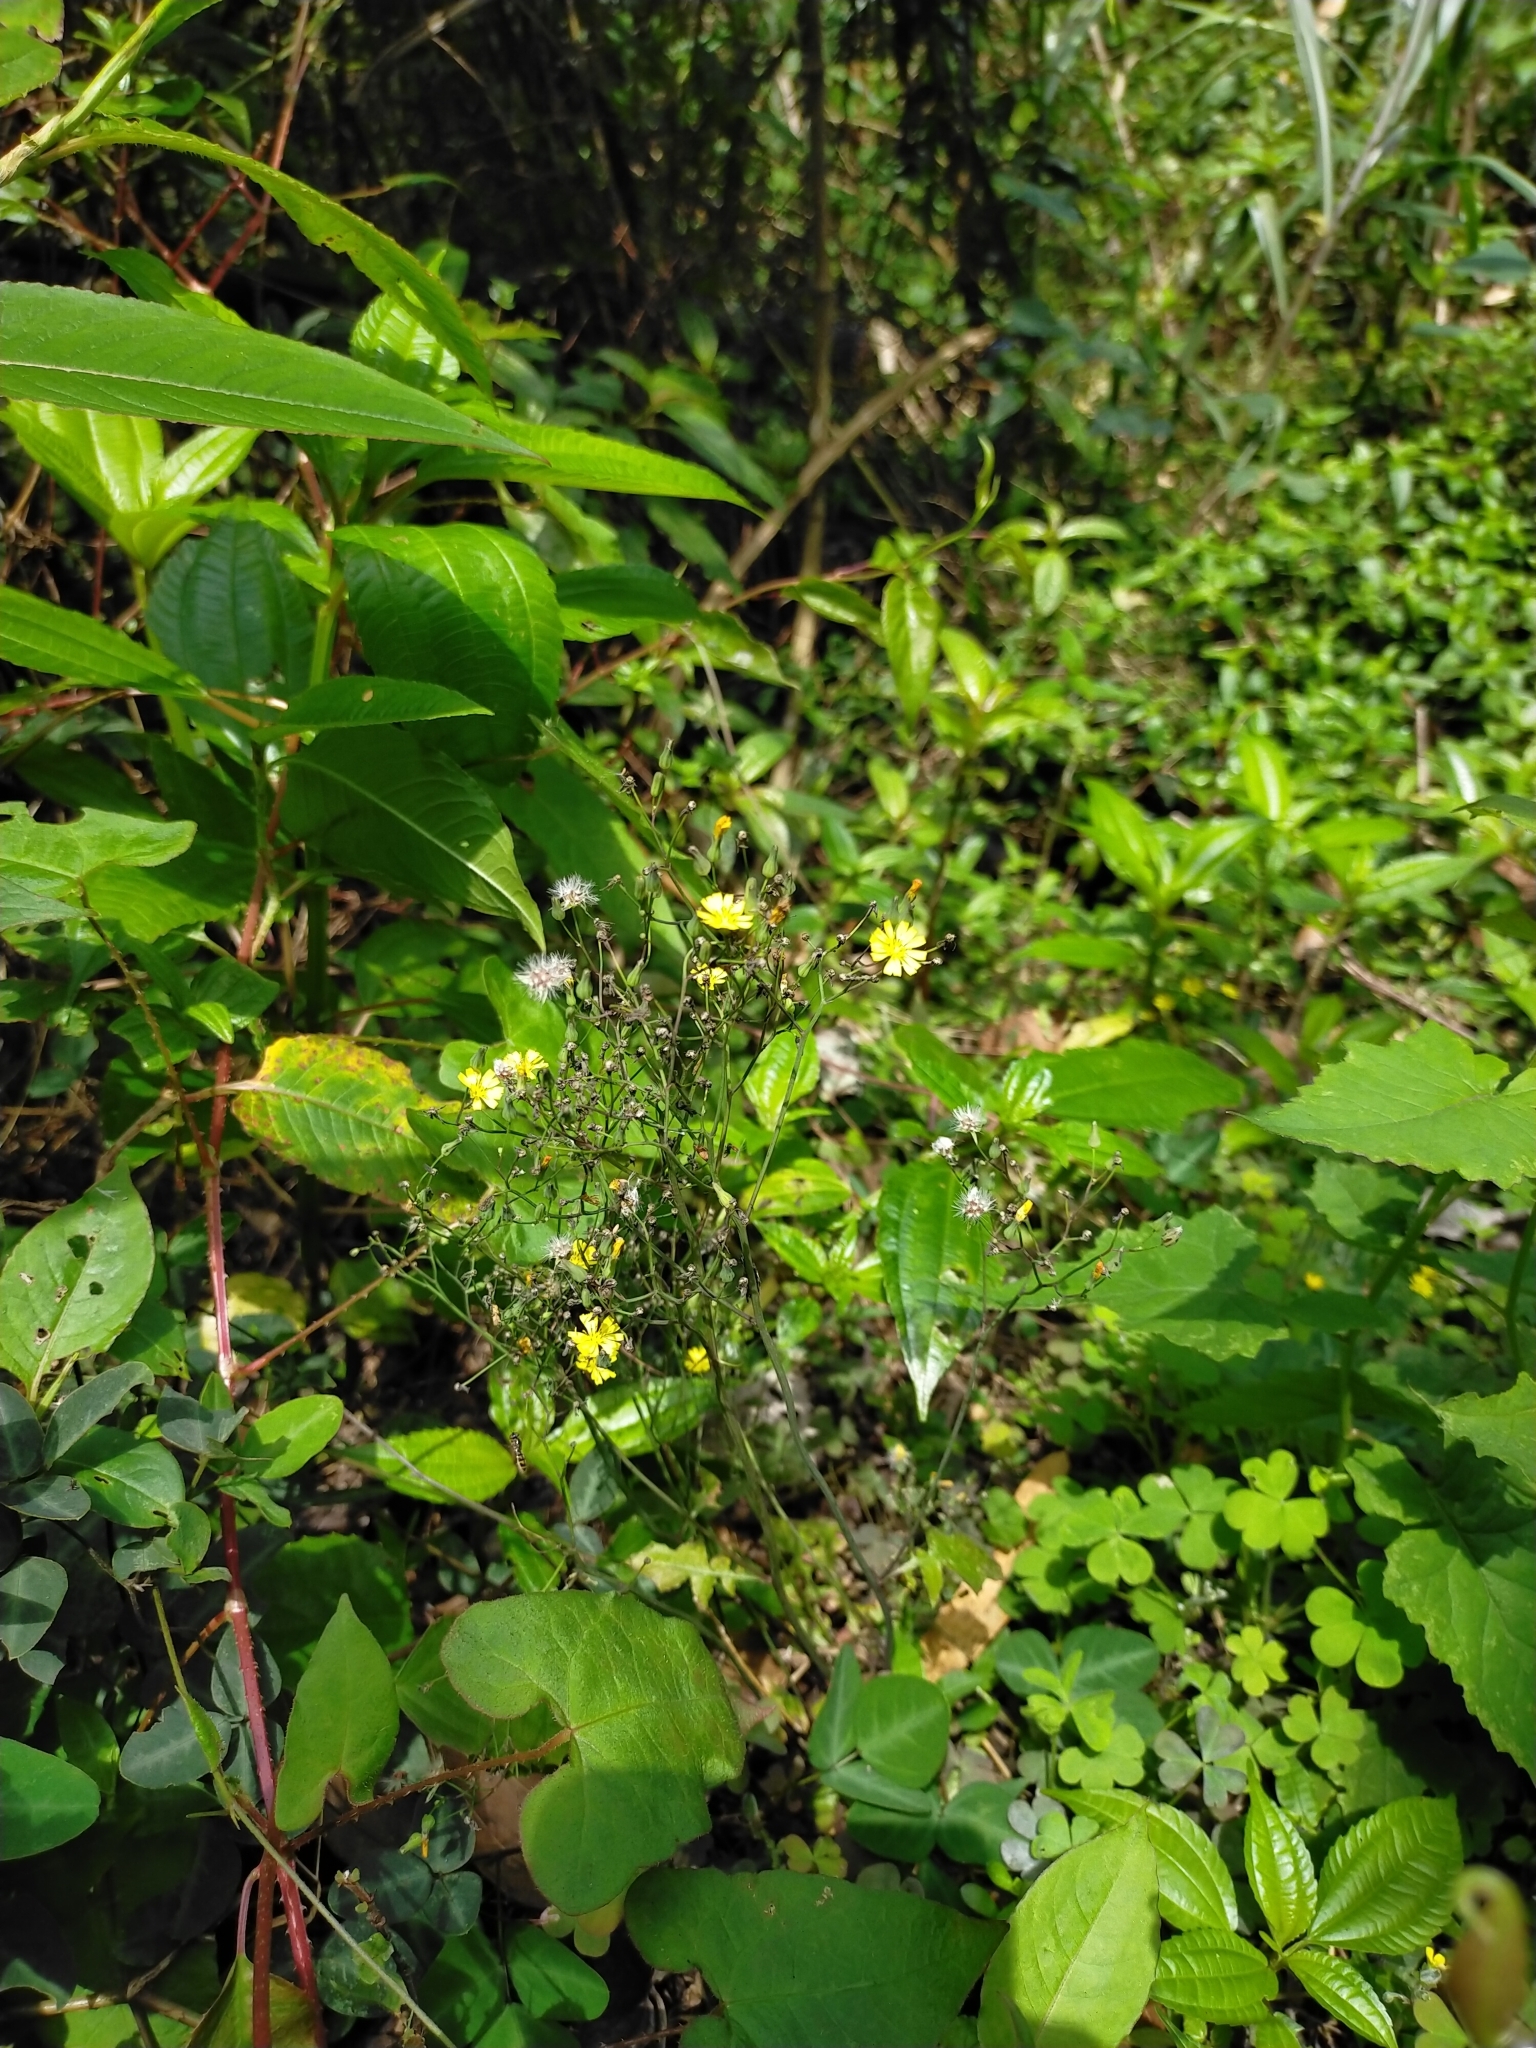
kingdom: Plantae
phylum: Tracheophyta
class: Magnoliopsida
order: Asterales
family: Asteraceae
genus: Youngia
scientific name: Youngia japonica
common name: Oriental false hawksbeard
